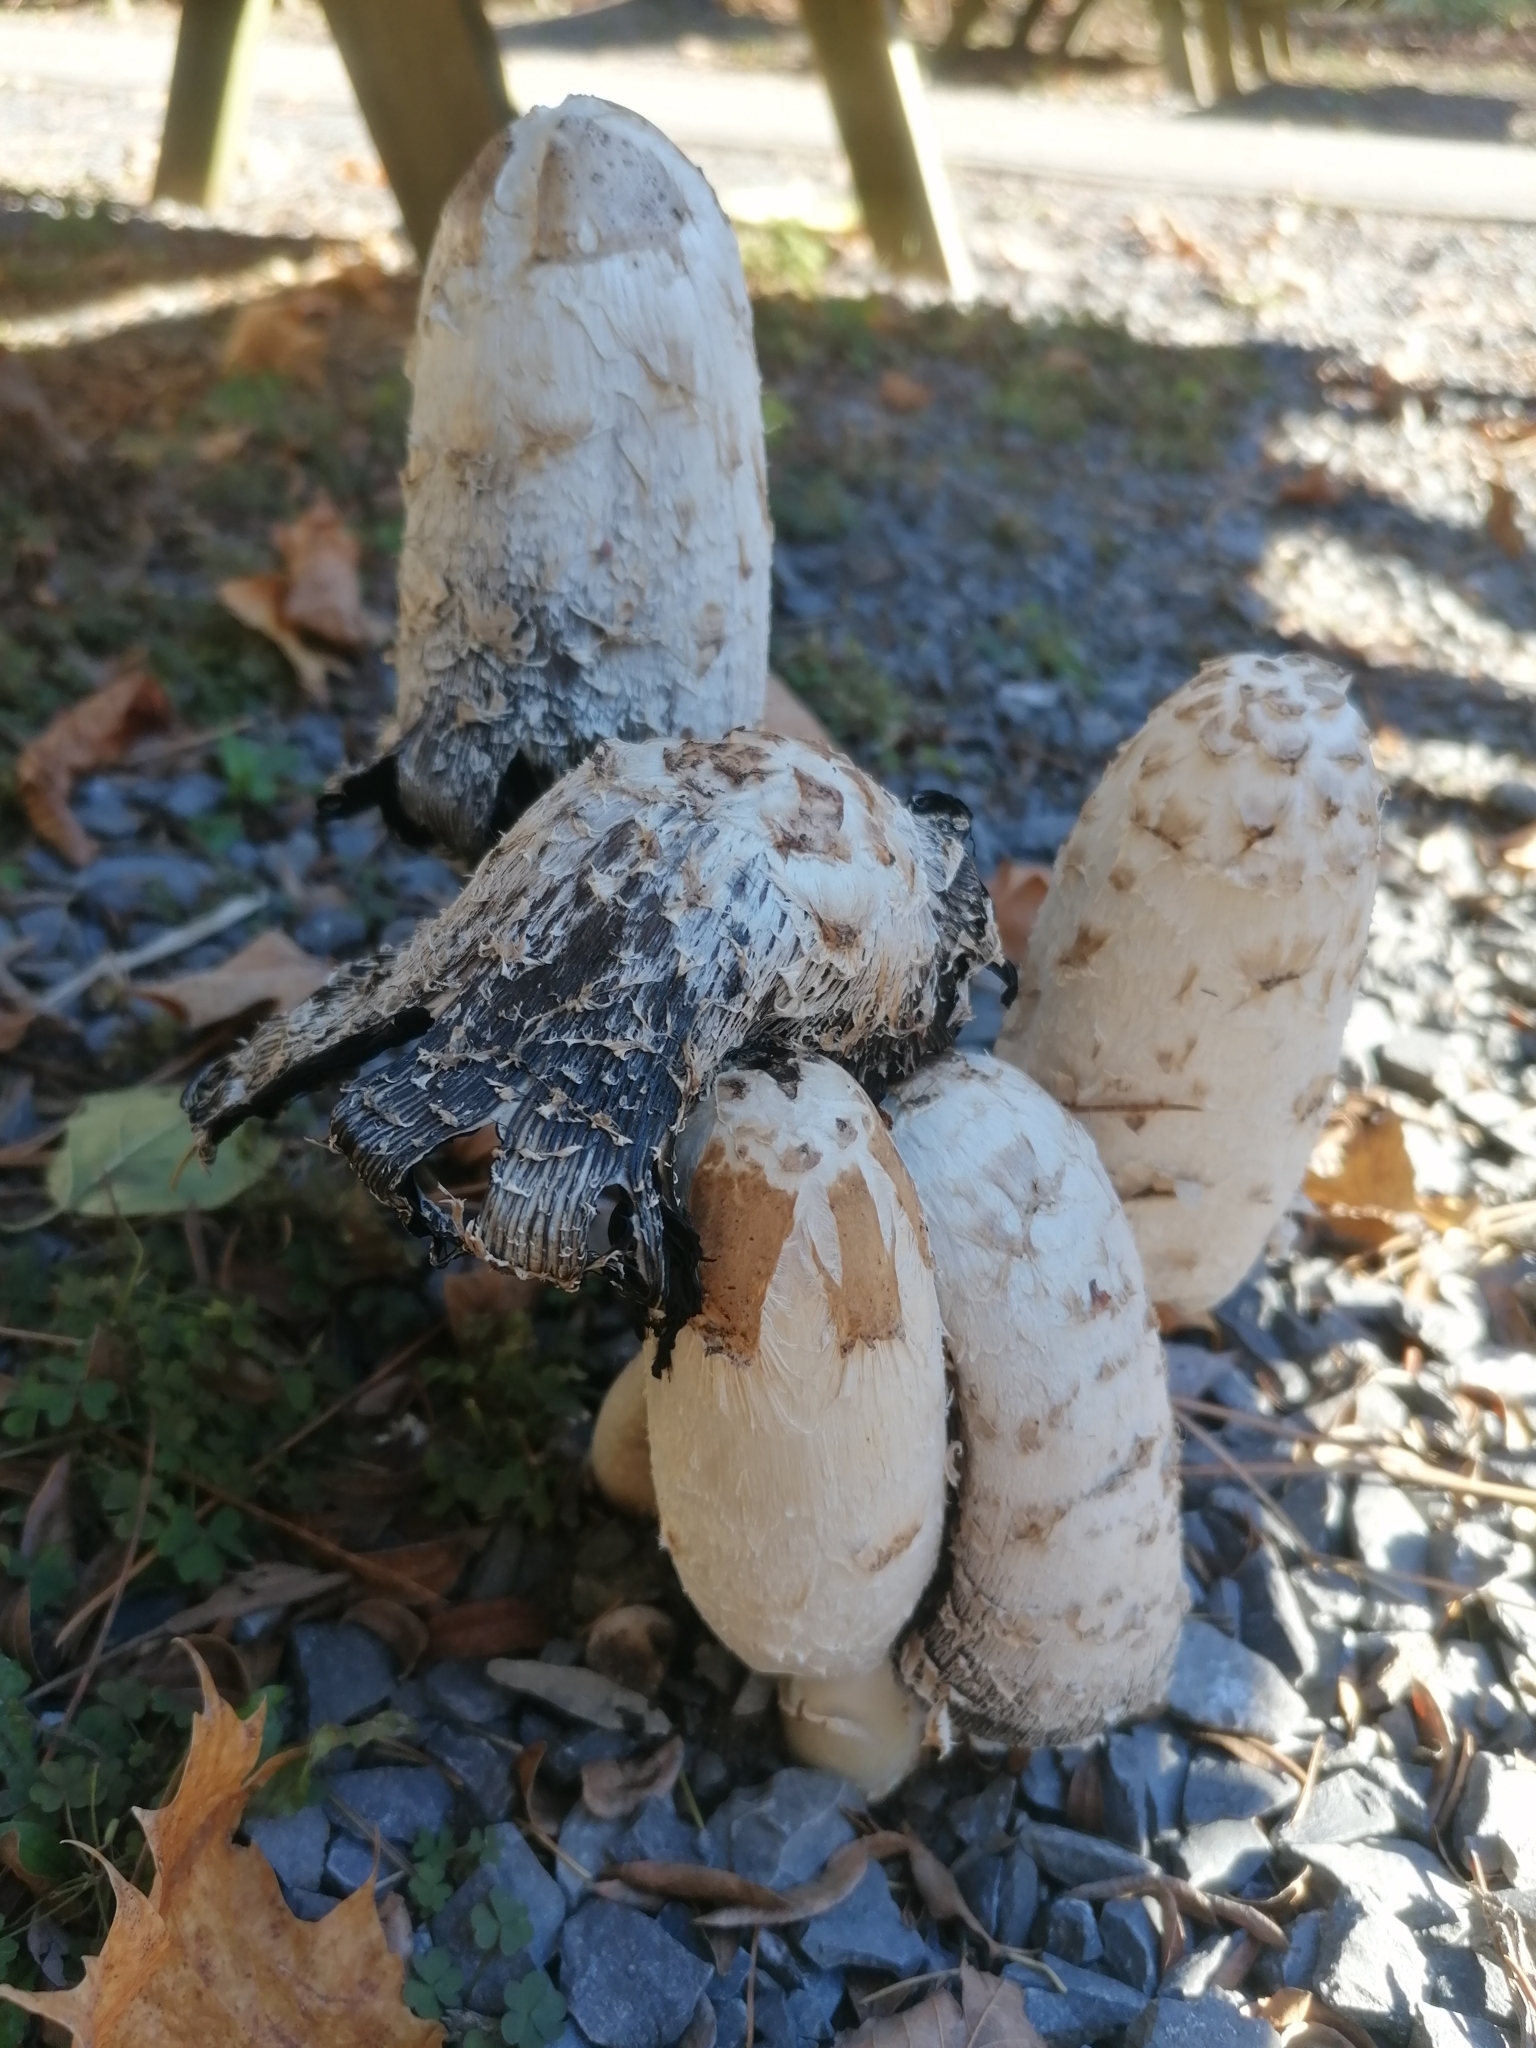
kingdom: Fungi
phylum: Basidiomycota
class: Agaricomycetes
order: Agaricales
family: Agaricaceae
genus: Coprinus
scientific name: Coprinus comatus
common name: Lawyer's wig
